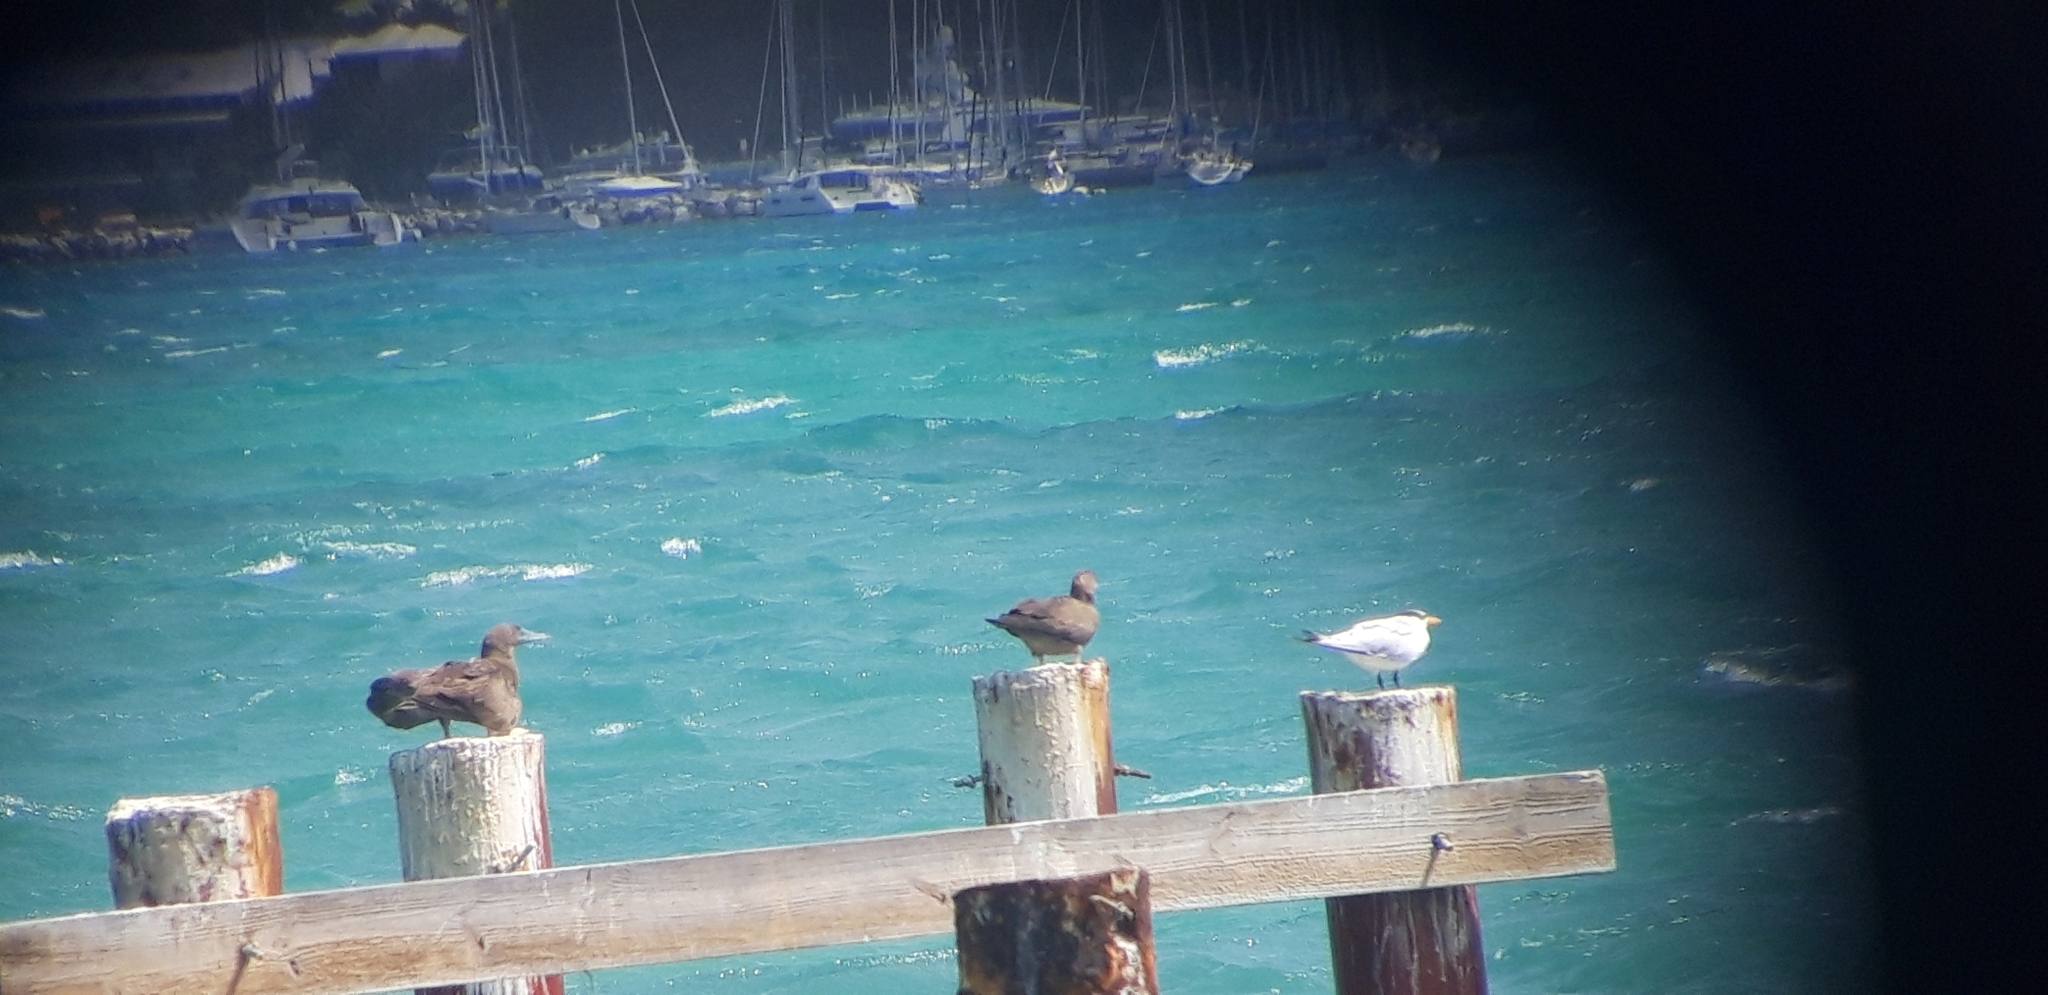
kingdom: Animalia
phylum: Chordata
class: Aves
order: Suliformes
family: Sulidae
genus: Sula
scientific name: Sula leucogaster
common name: Brown booby
